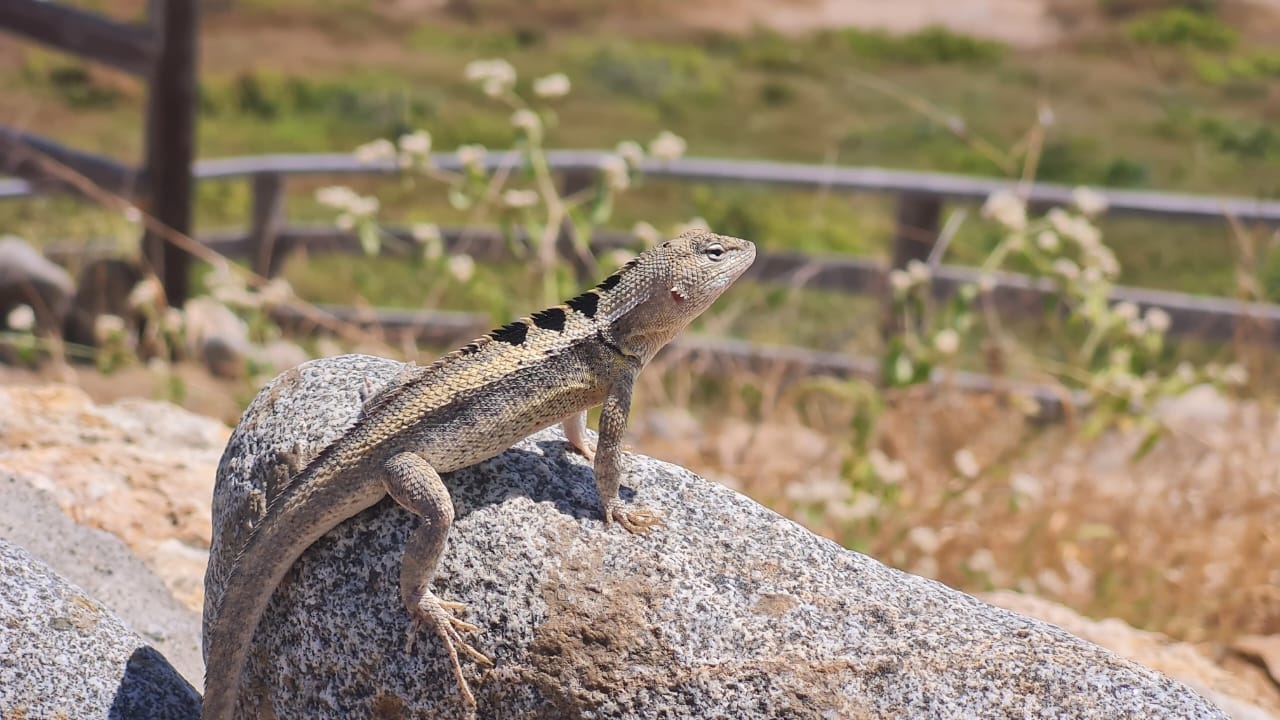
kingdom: Animalia
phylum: Chordata
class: Squamata
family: Tropiduridae
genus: Microlophus
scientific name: Microlophus occipitalis
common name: Knobbed pacific iguana
